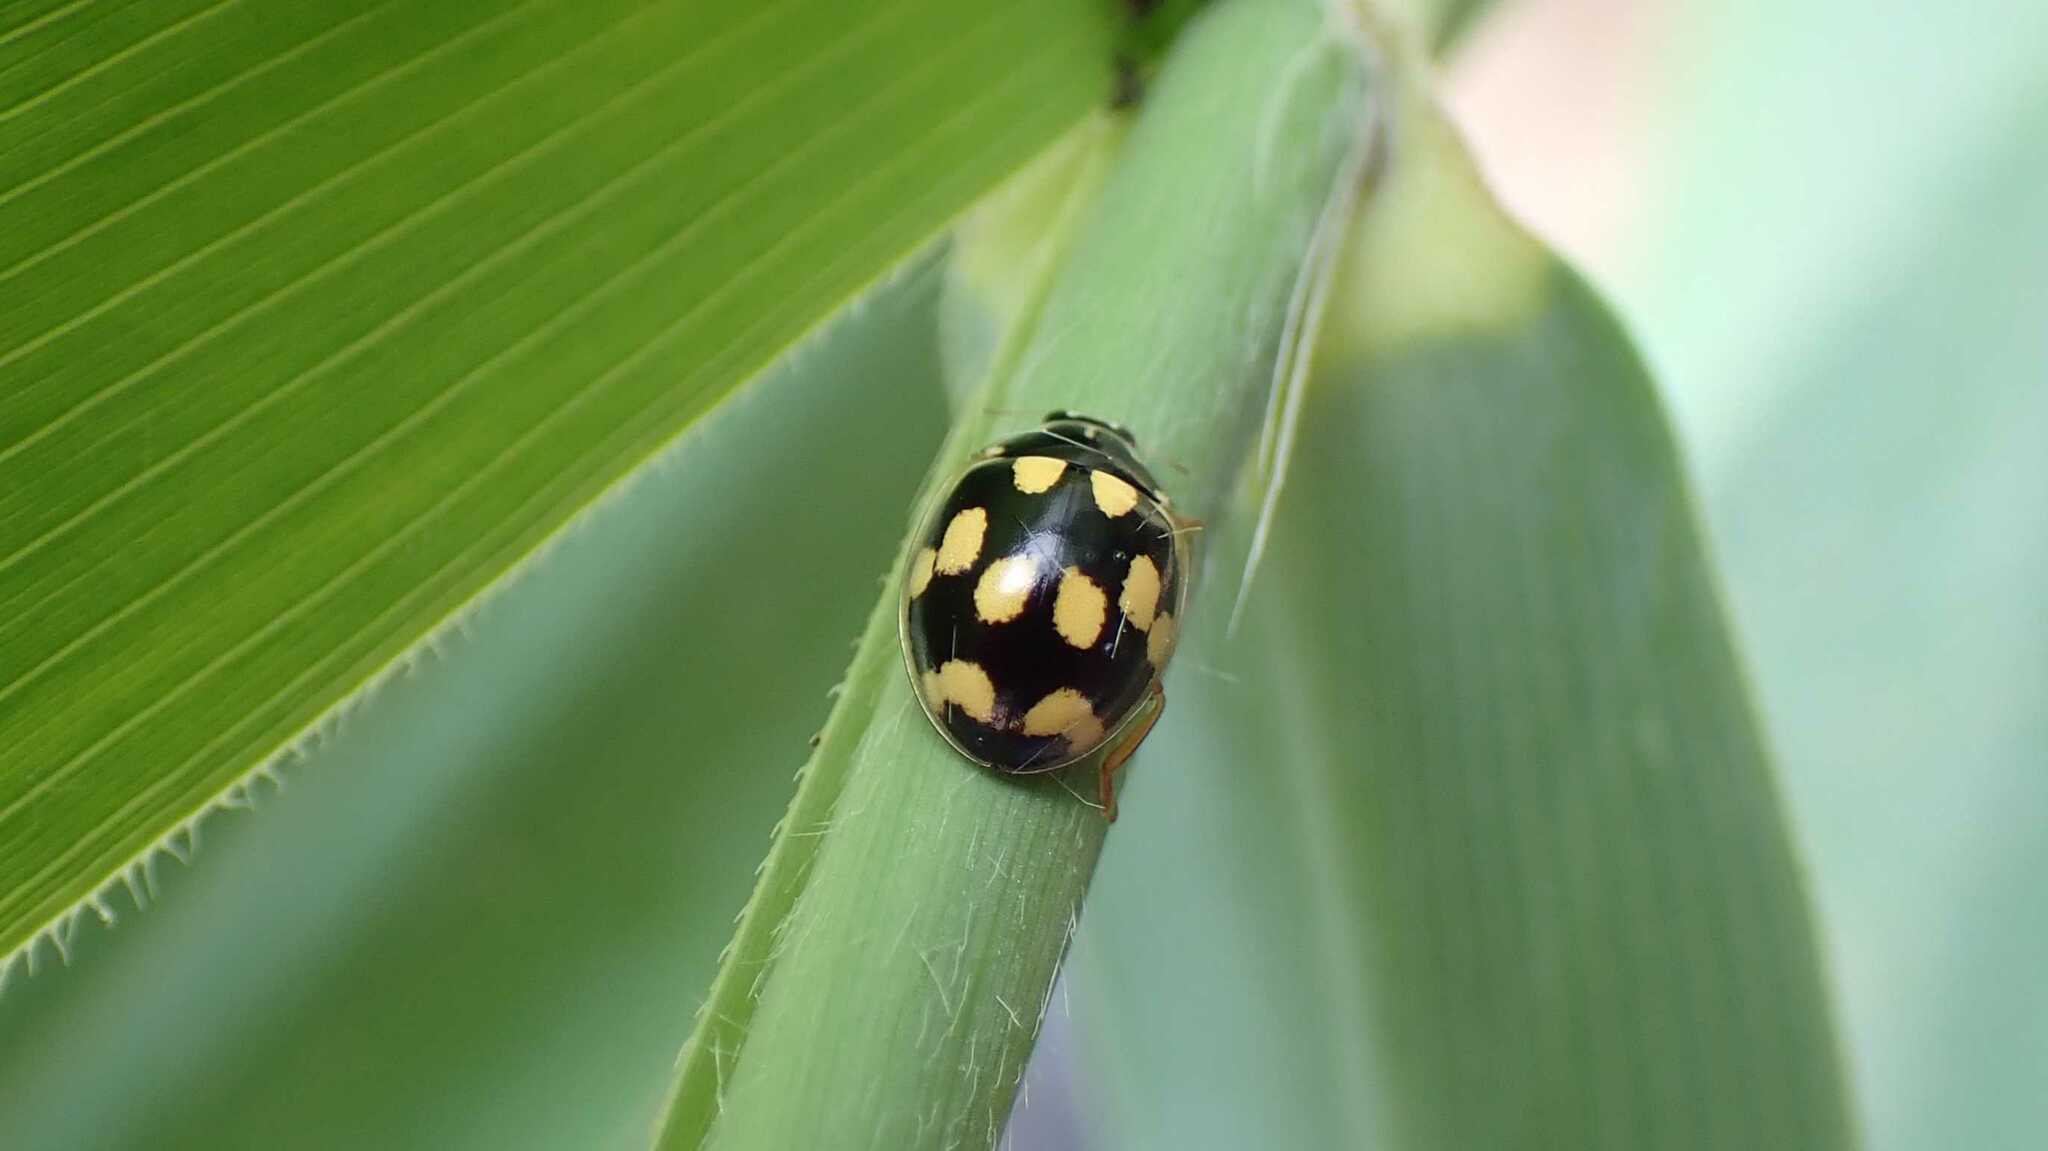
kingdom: Animalia
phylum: Arthropoda
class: Insecta
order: Coleoptera
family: Coccinellidae
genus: Propylaea
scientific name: Propylaea quatuordecimpunctata
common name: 14-spotted ladybird beetle
